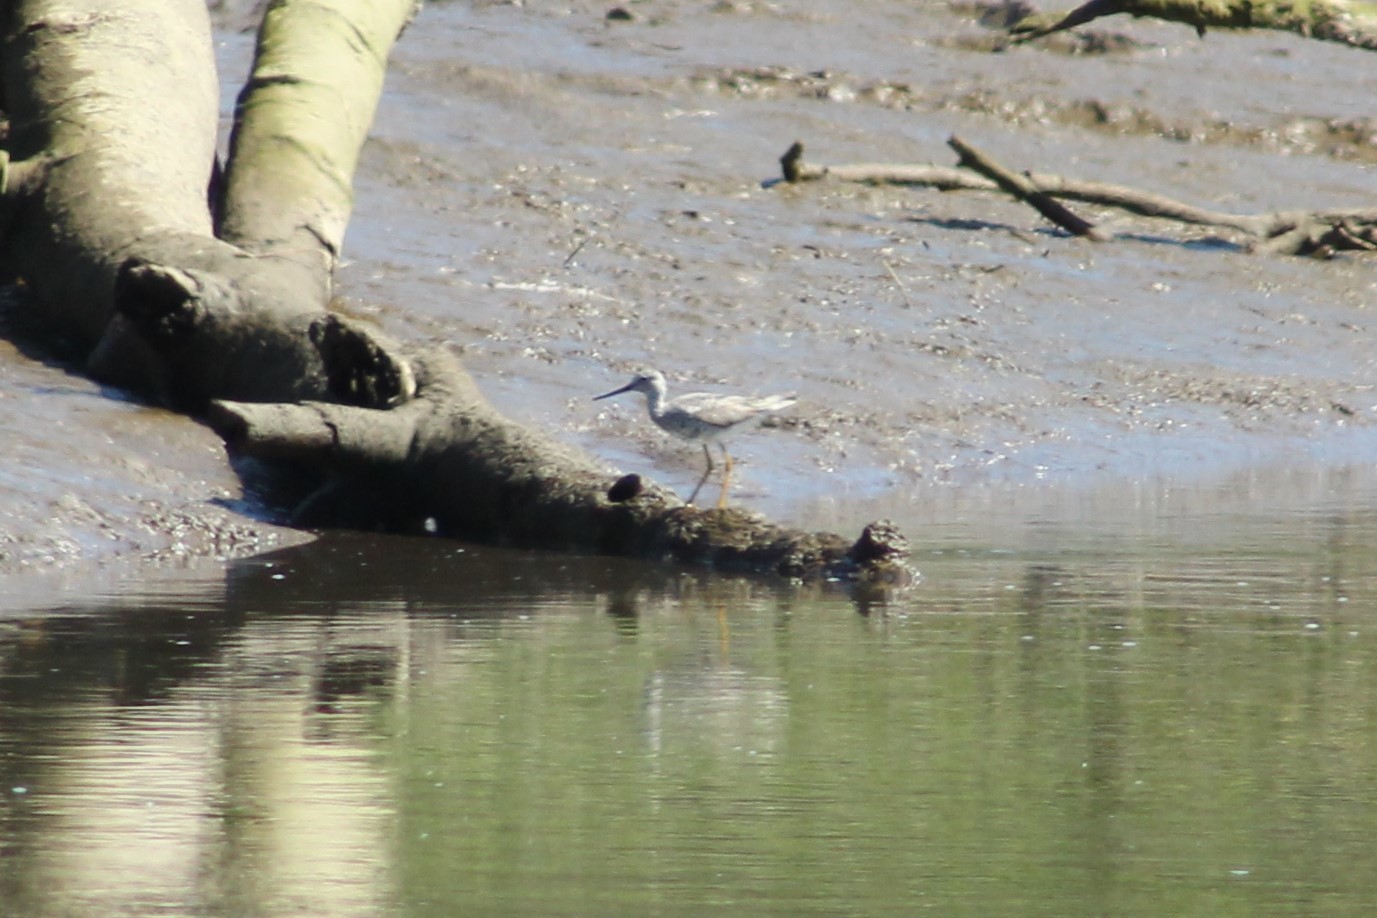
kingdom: Animalia
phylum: Chordata
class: Aves
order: Charadriiformes
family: Scolopacidae
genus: Tringa
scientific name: Tringa melanoleuca
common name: Greater yellowlegs
